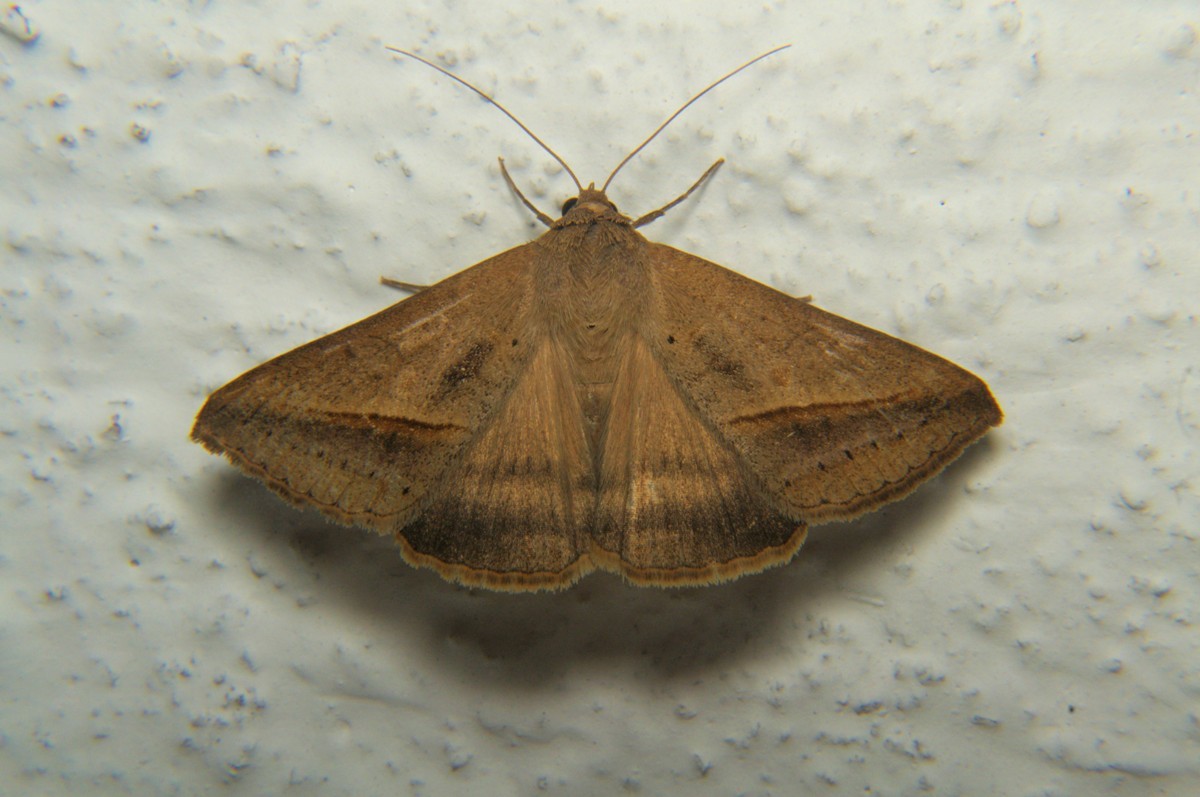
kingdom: Animalia
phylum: Arthropoda
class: Insecta
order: Lepidoptera
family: Erebidae
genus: Mocis
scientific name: Mocis frugalis
